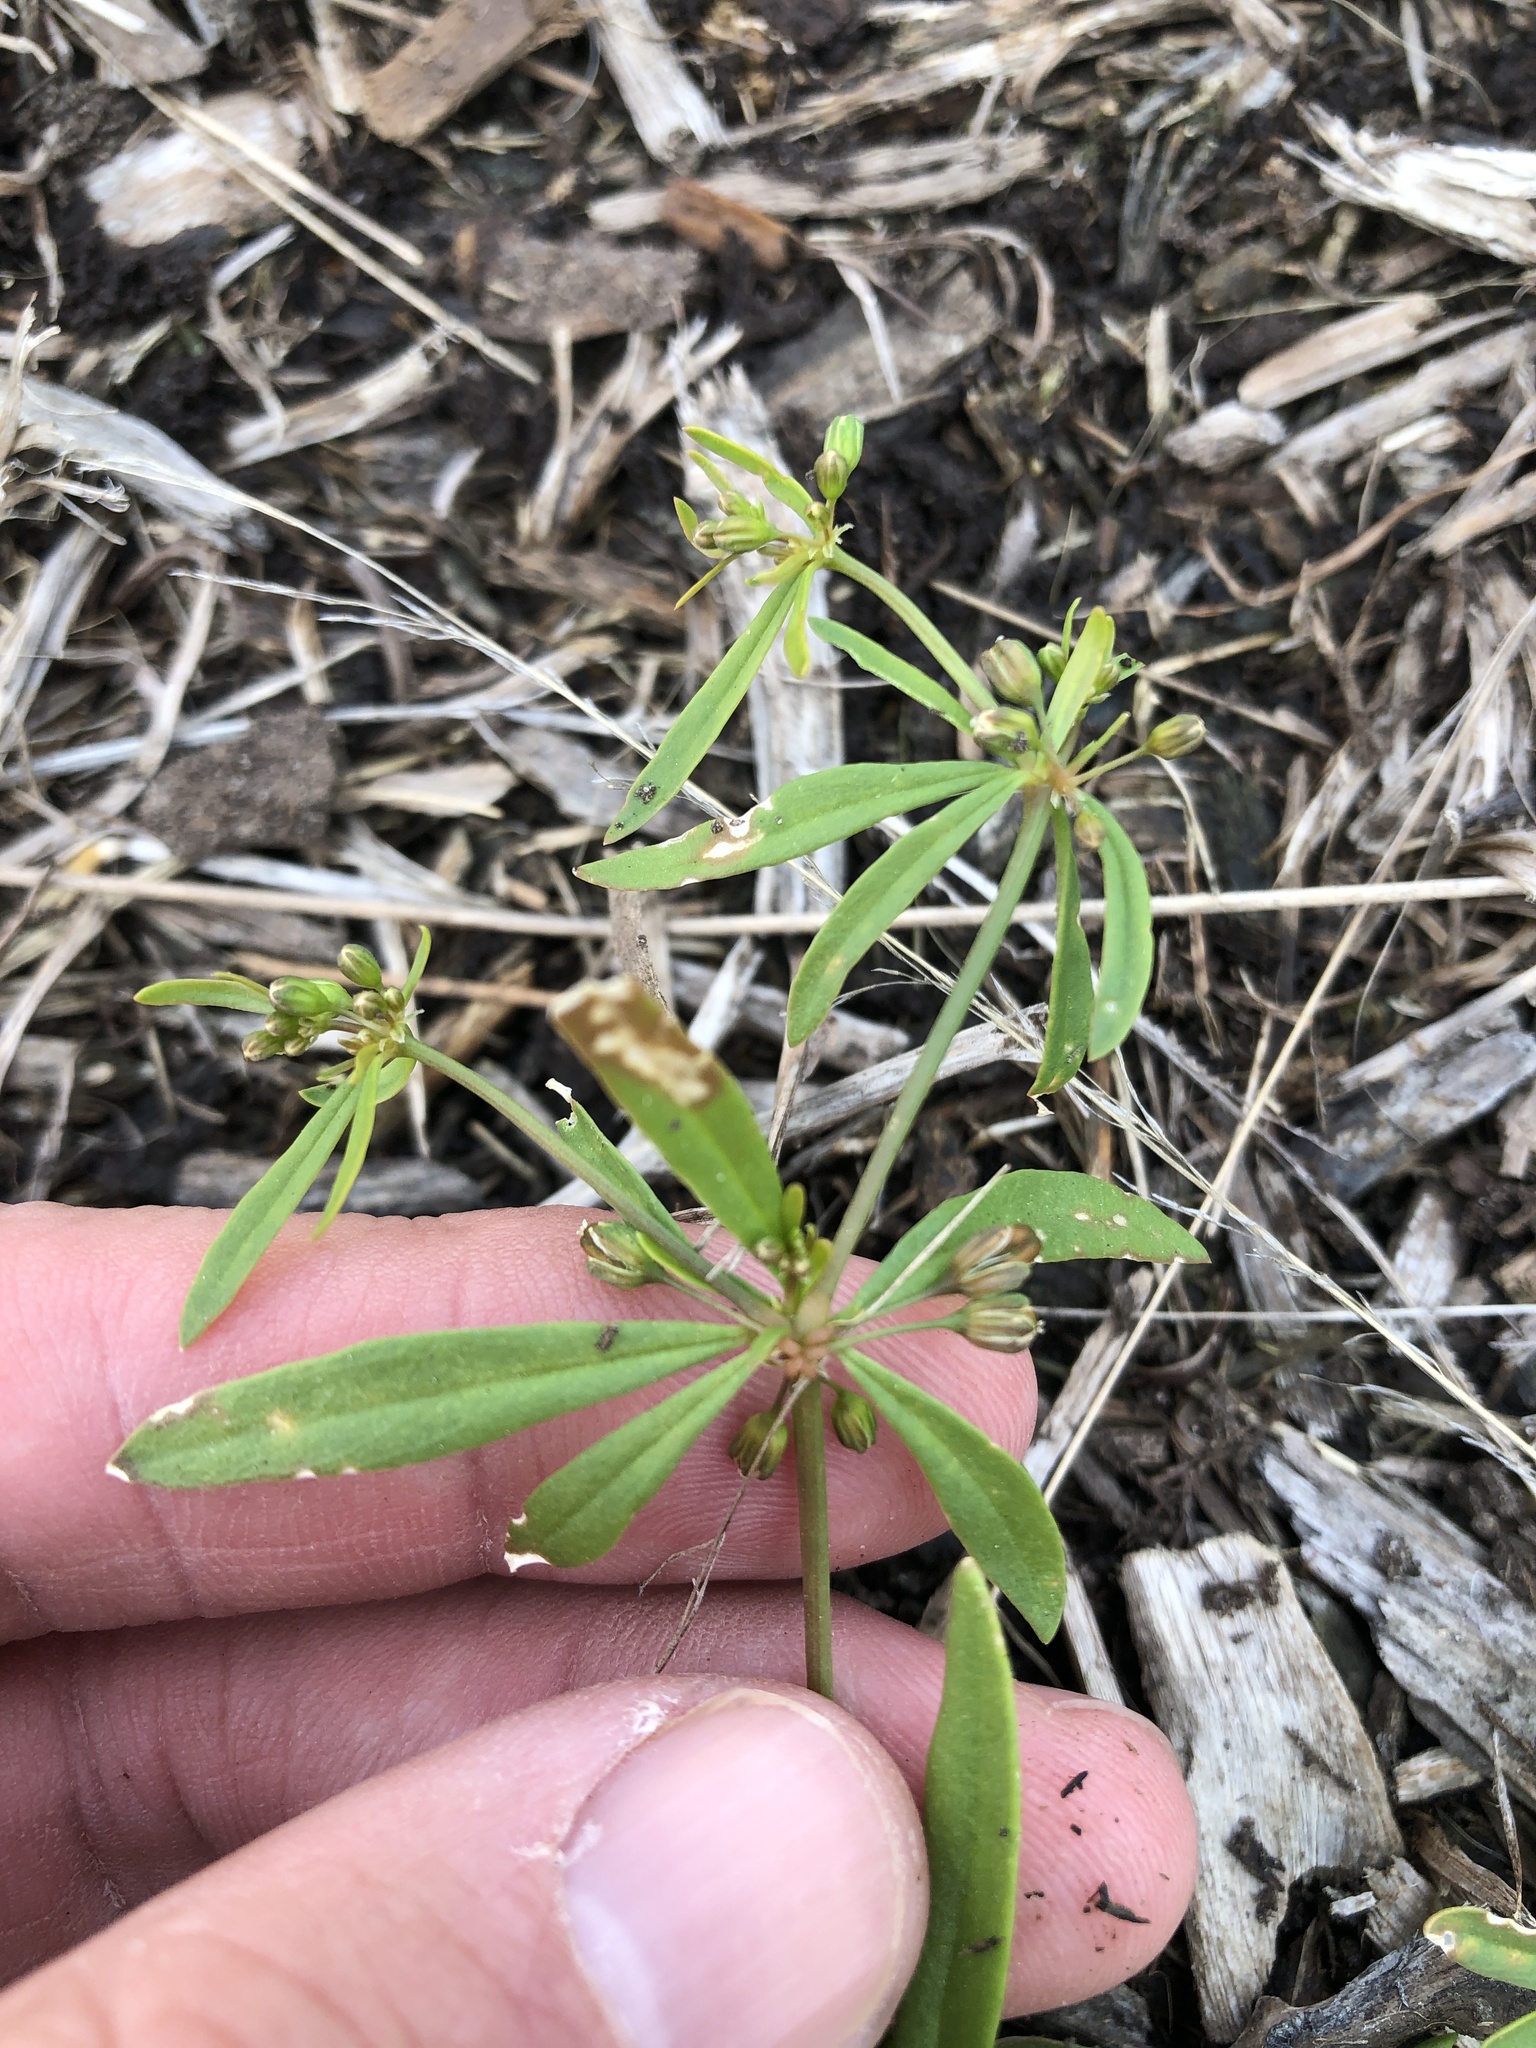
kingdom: Plantae
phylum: Tracheophyta
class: Magnoliopsida
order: Caryophyllales
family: Molluginaceae
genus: Mollugo
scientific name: Mollugo verticillata
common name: Green carpetweed
